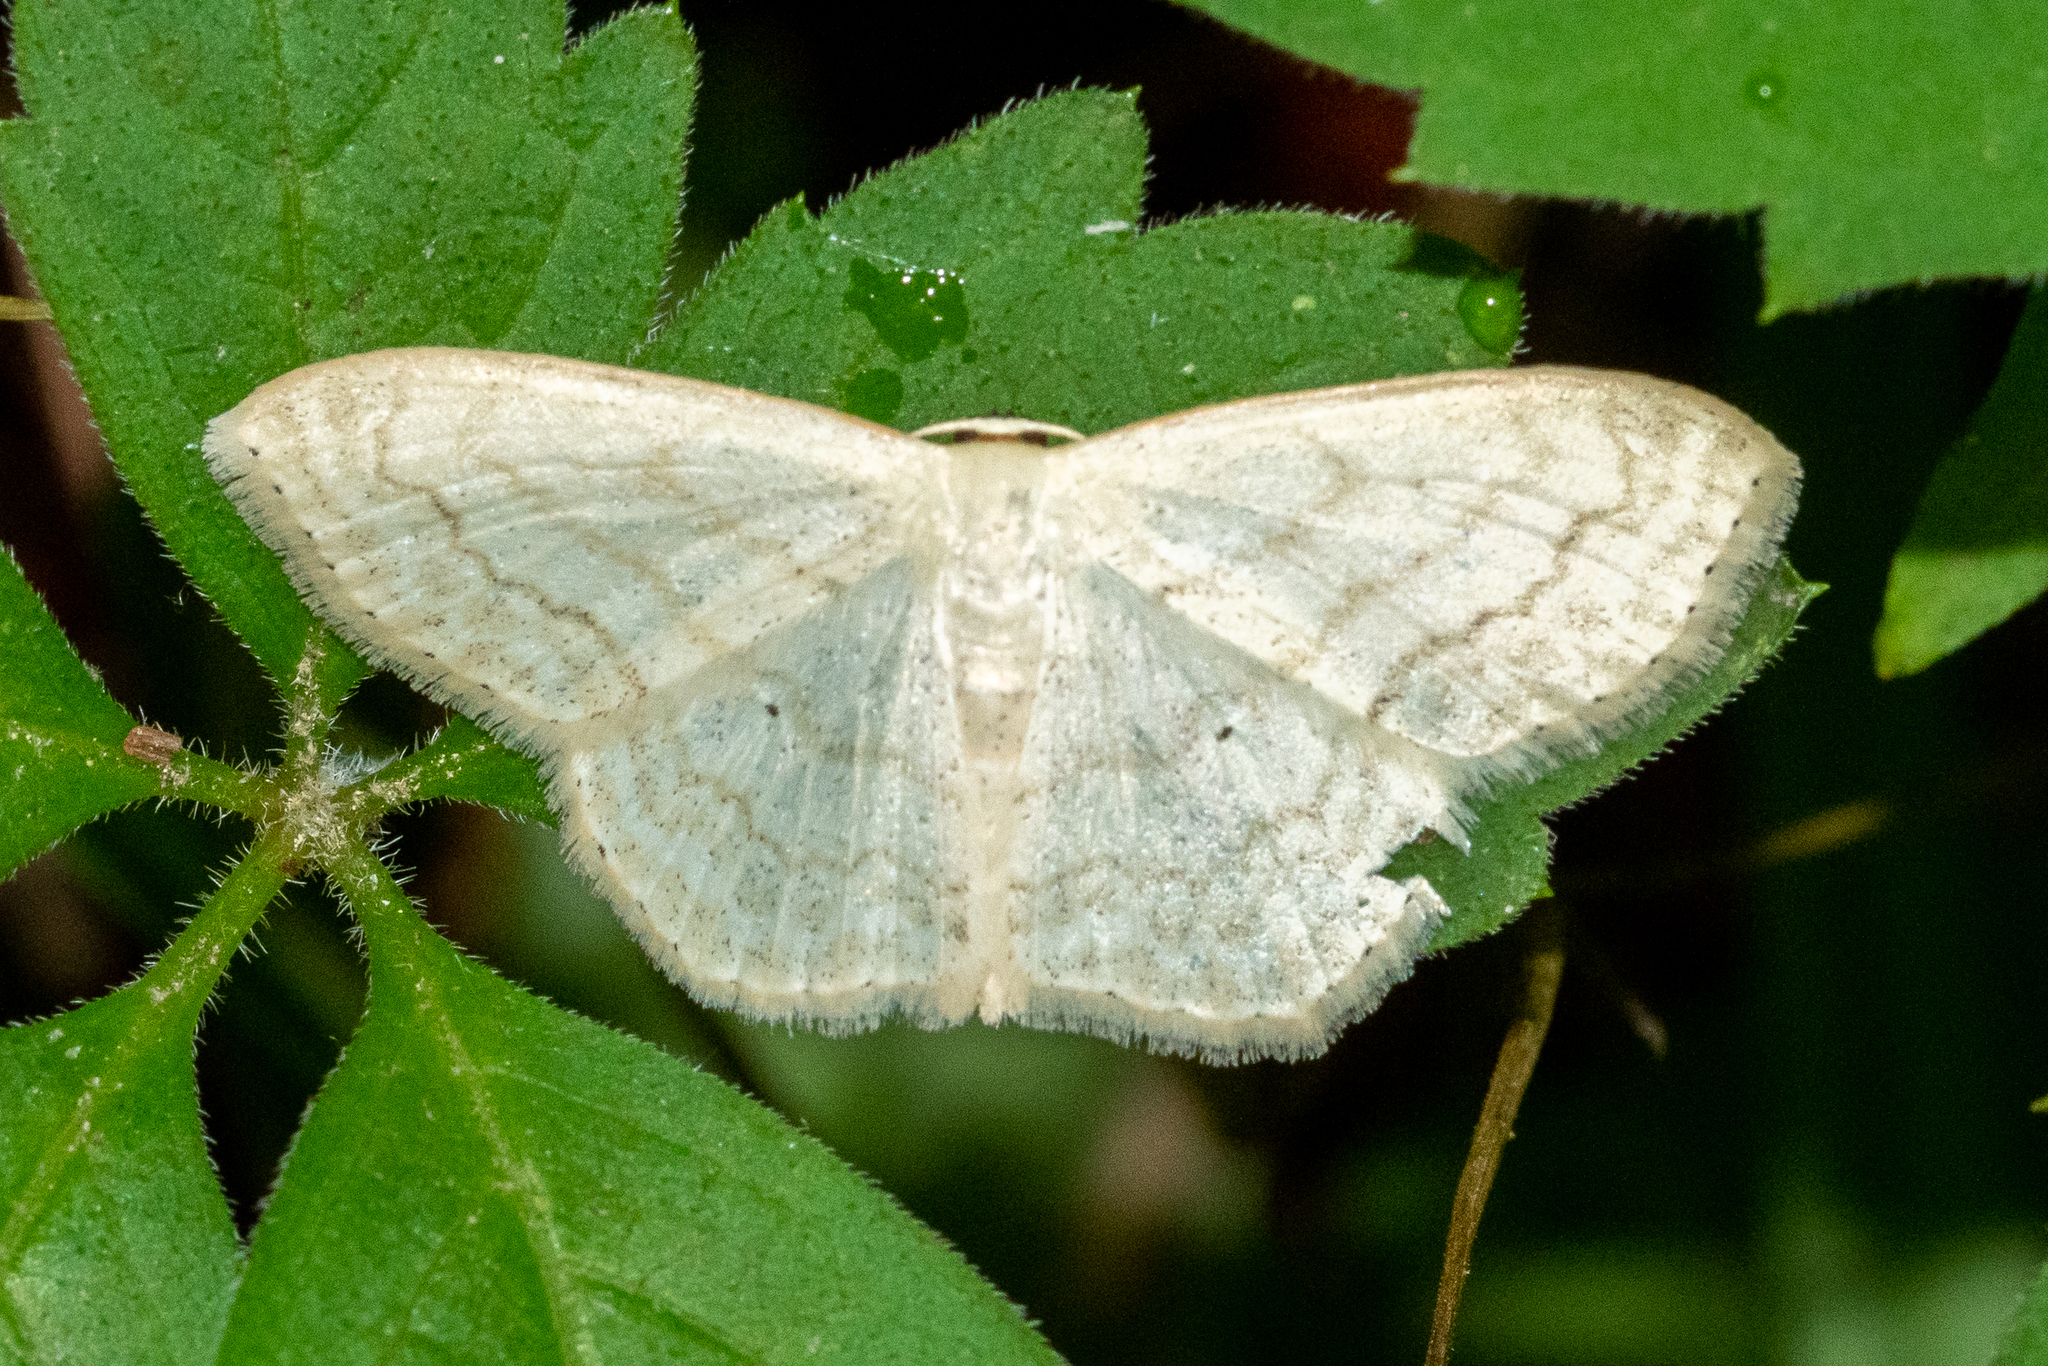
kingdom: Animalia
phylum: Arthropoda
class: Insecta
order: Lepidoptera
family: Geometridae
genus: Scopula
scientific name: Scopula limboundata
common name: Large lace border
